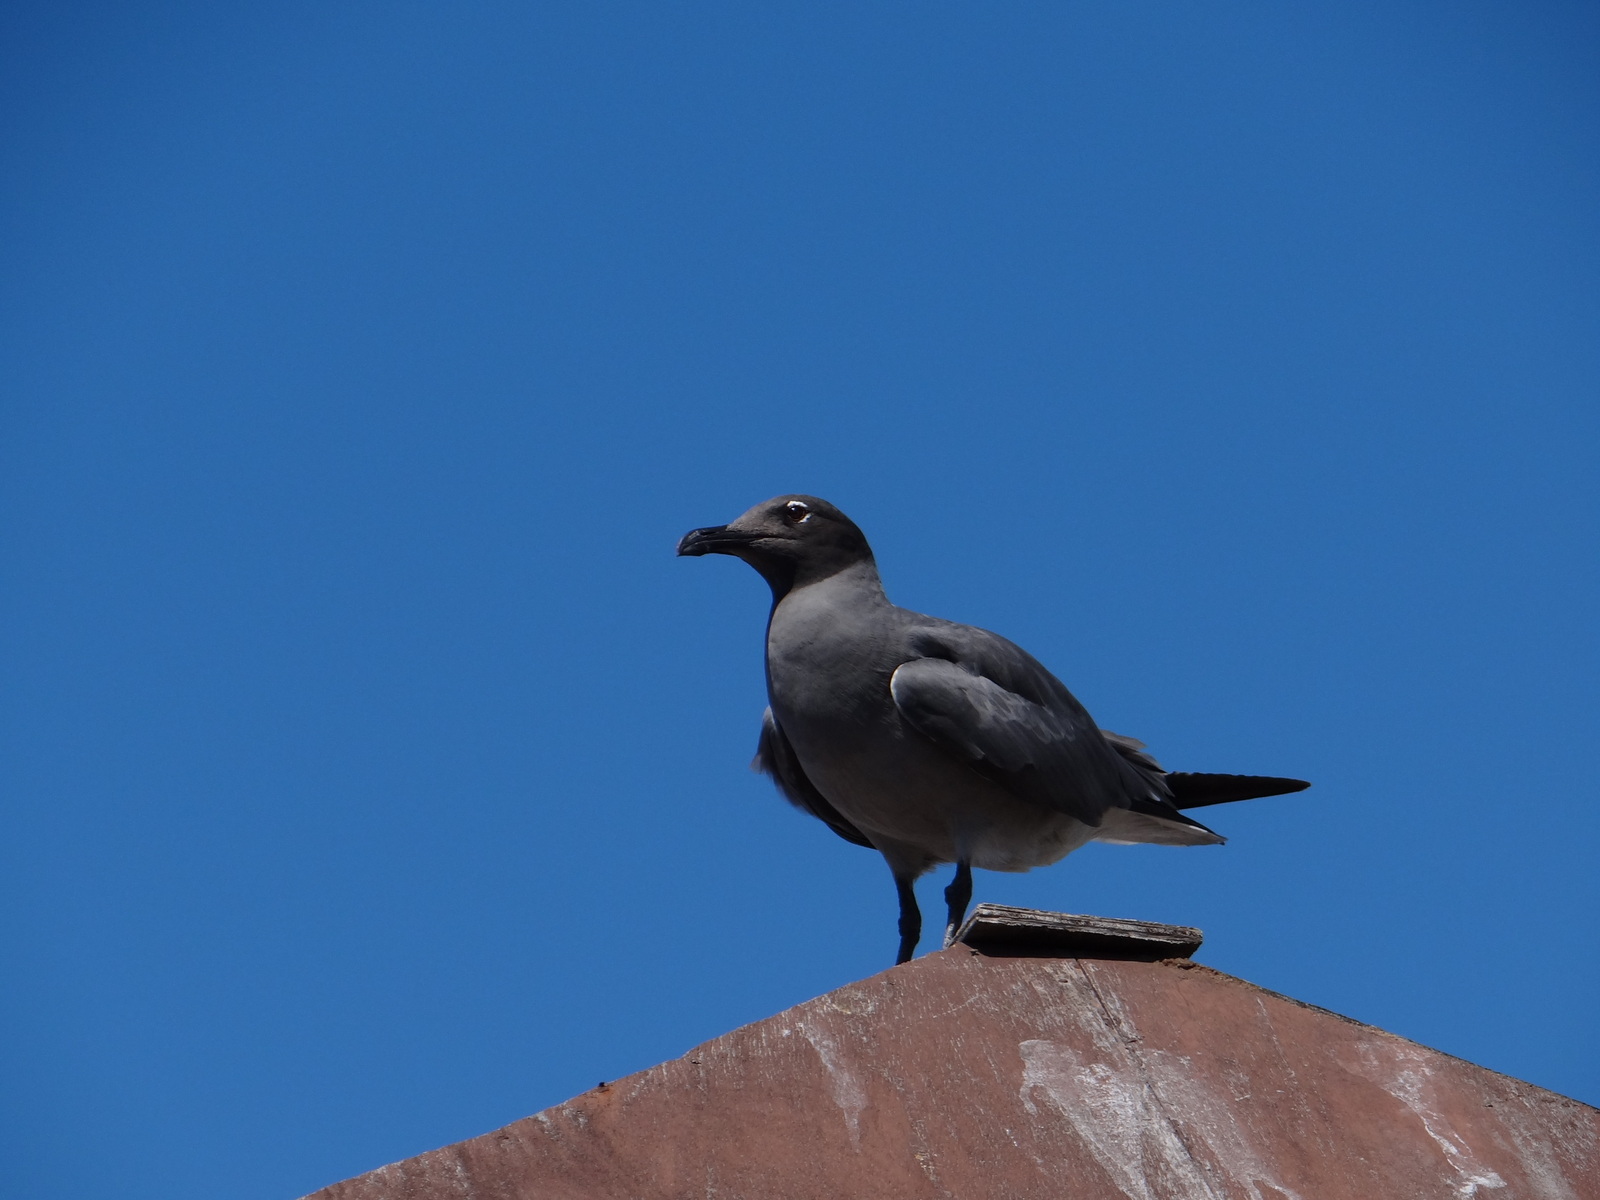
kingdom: Animalia
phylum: Chordata
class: Aves
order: Charadriiformes
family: Laridae
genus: Leucophaeus
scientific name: Leucophaeus fuliginosus
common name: Lava gull
